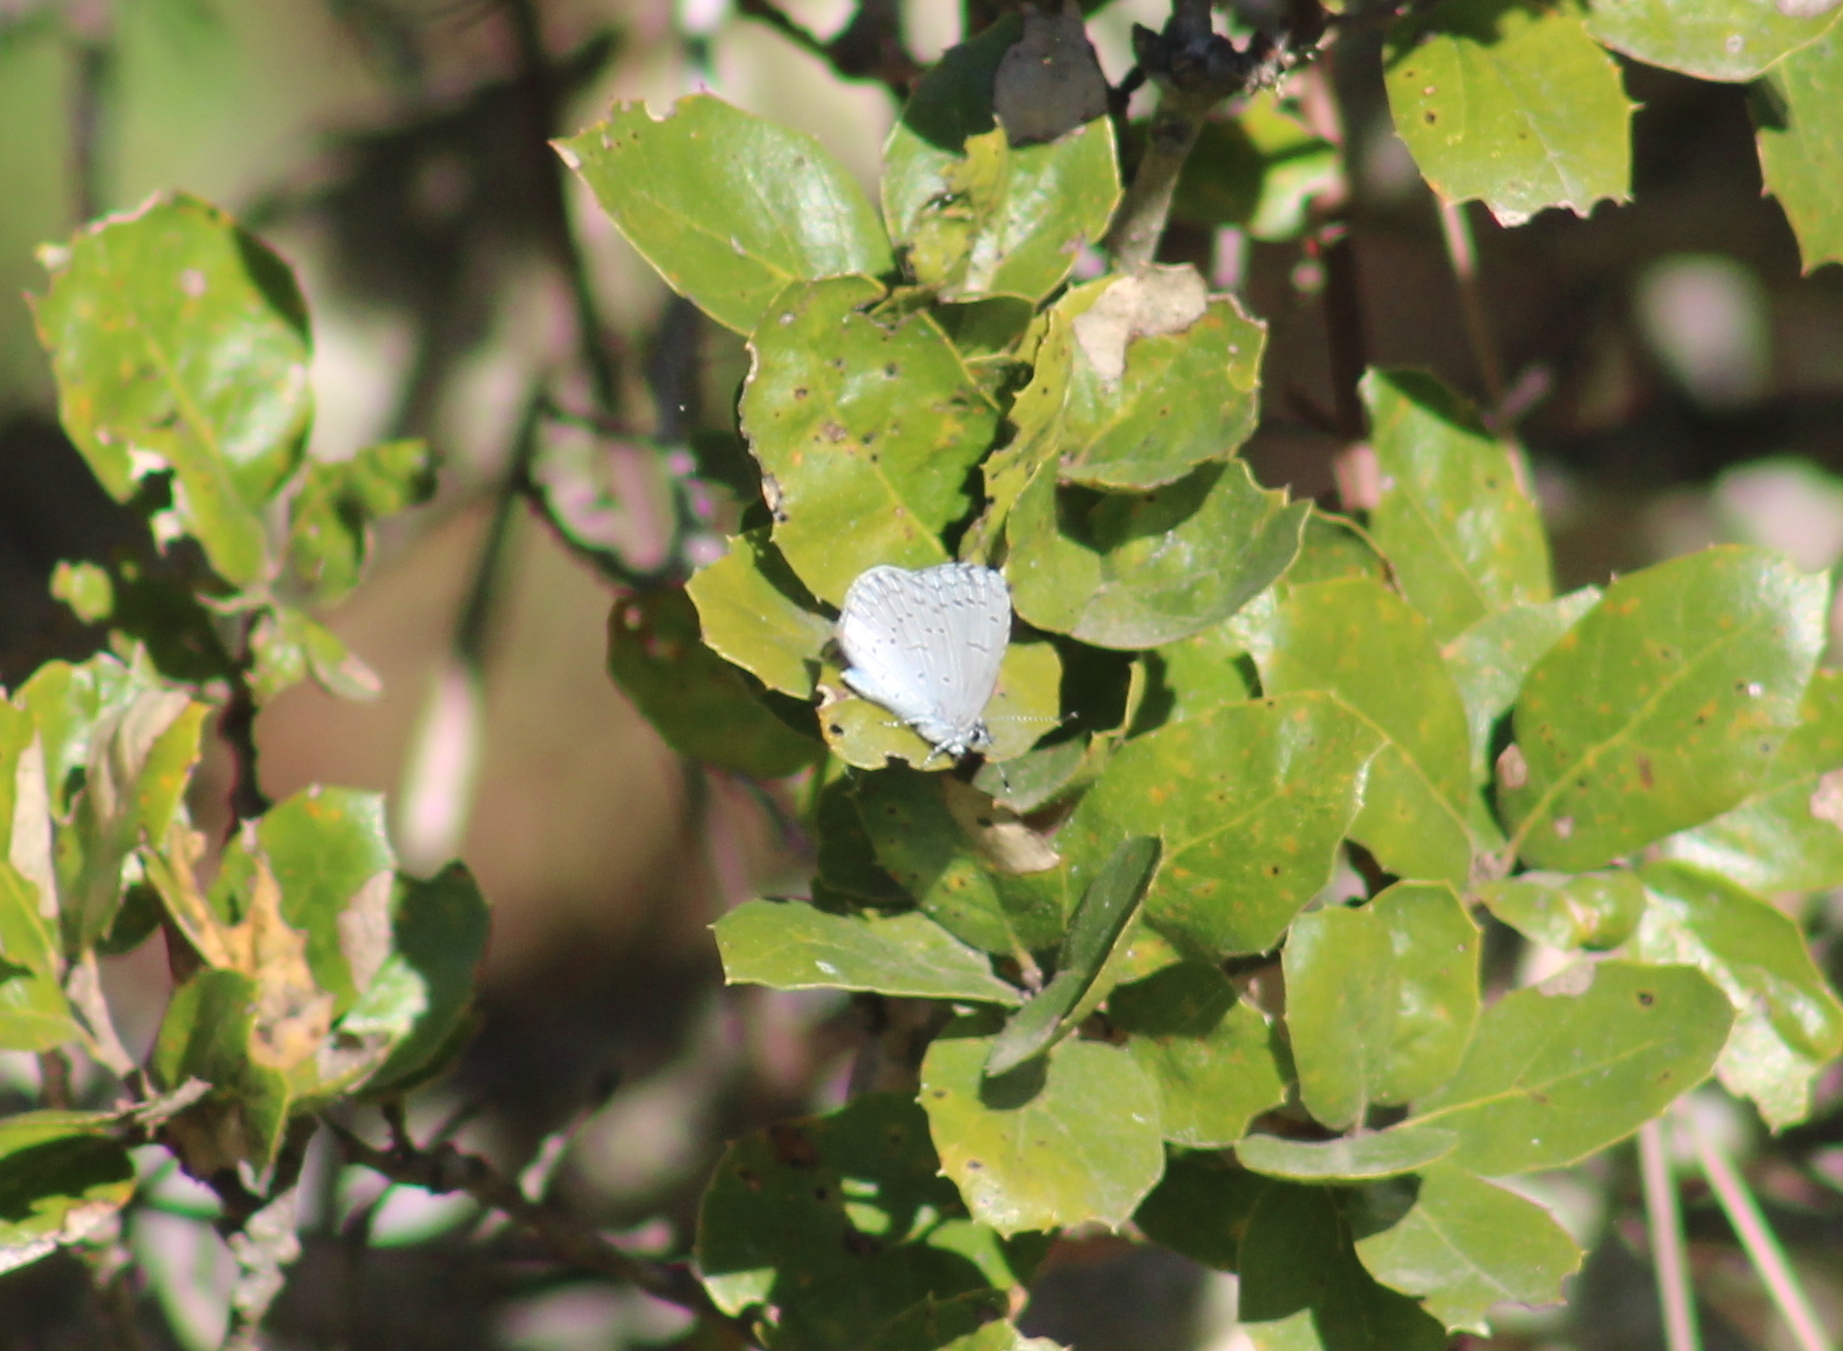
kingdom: Animalia
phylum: Arthropoda
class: Insecta
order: Lepidoptera
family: Lycaenidae
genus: Celastrina
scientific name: Celastrina ladon
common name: Spring azure
